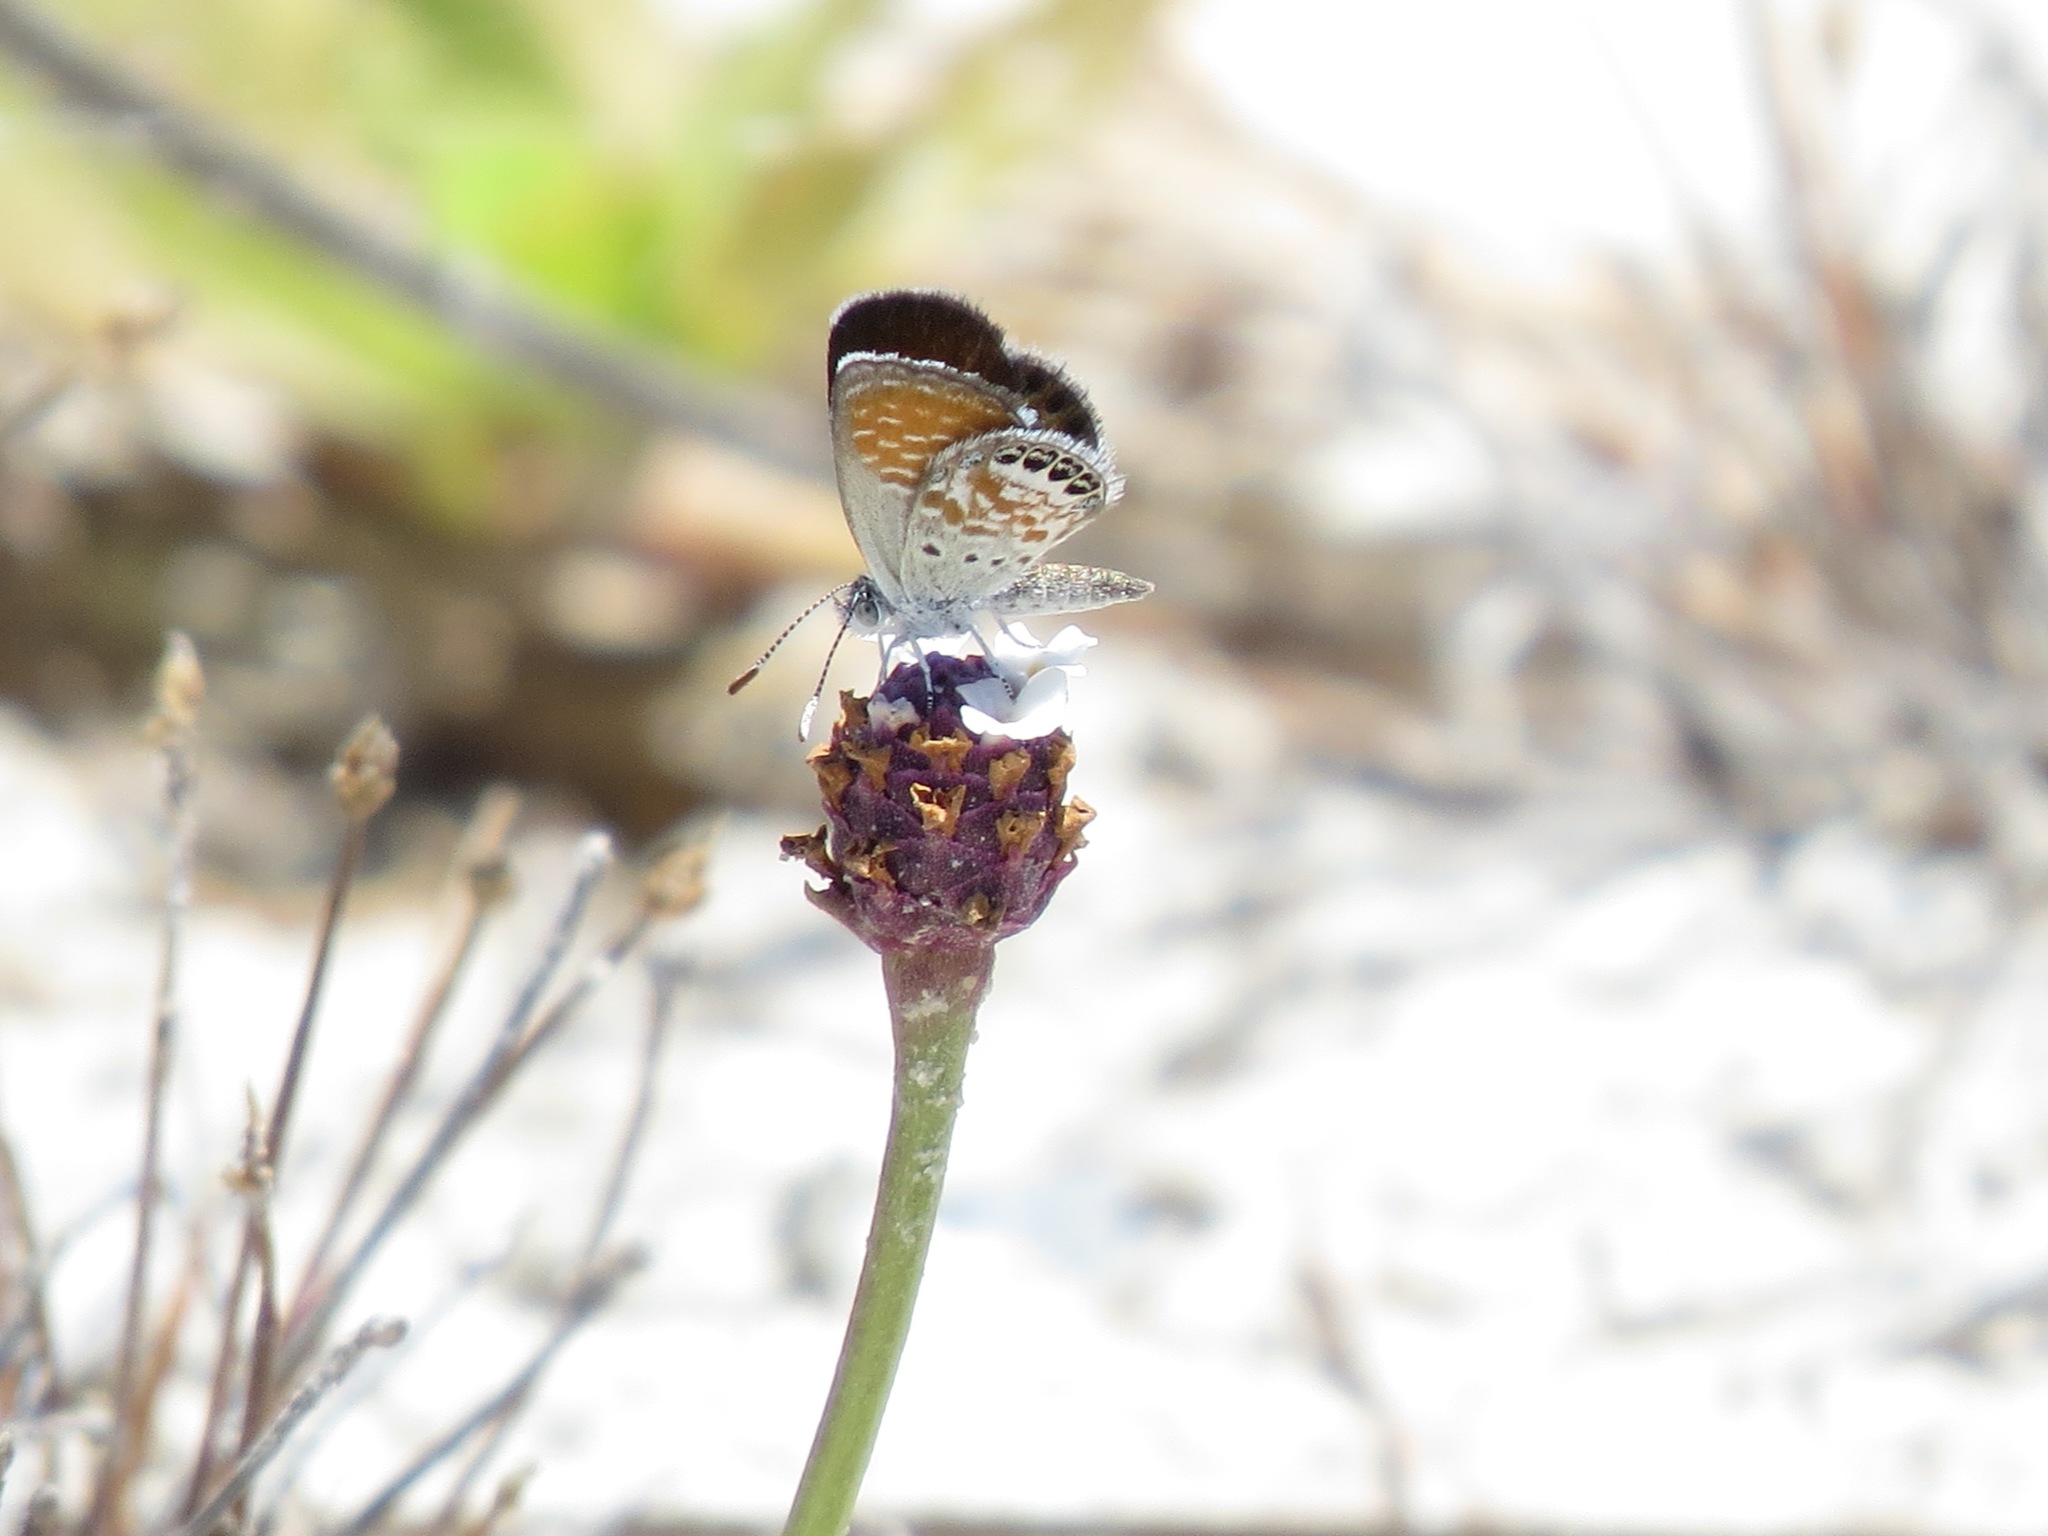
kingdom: Animalia
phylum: Arthropoda
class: Insecta
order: Lepidoptera
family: Lycaenidae
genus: Brephidium
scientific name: Brephidium exilis
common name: Pygmy blue
